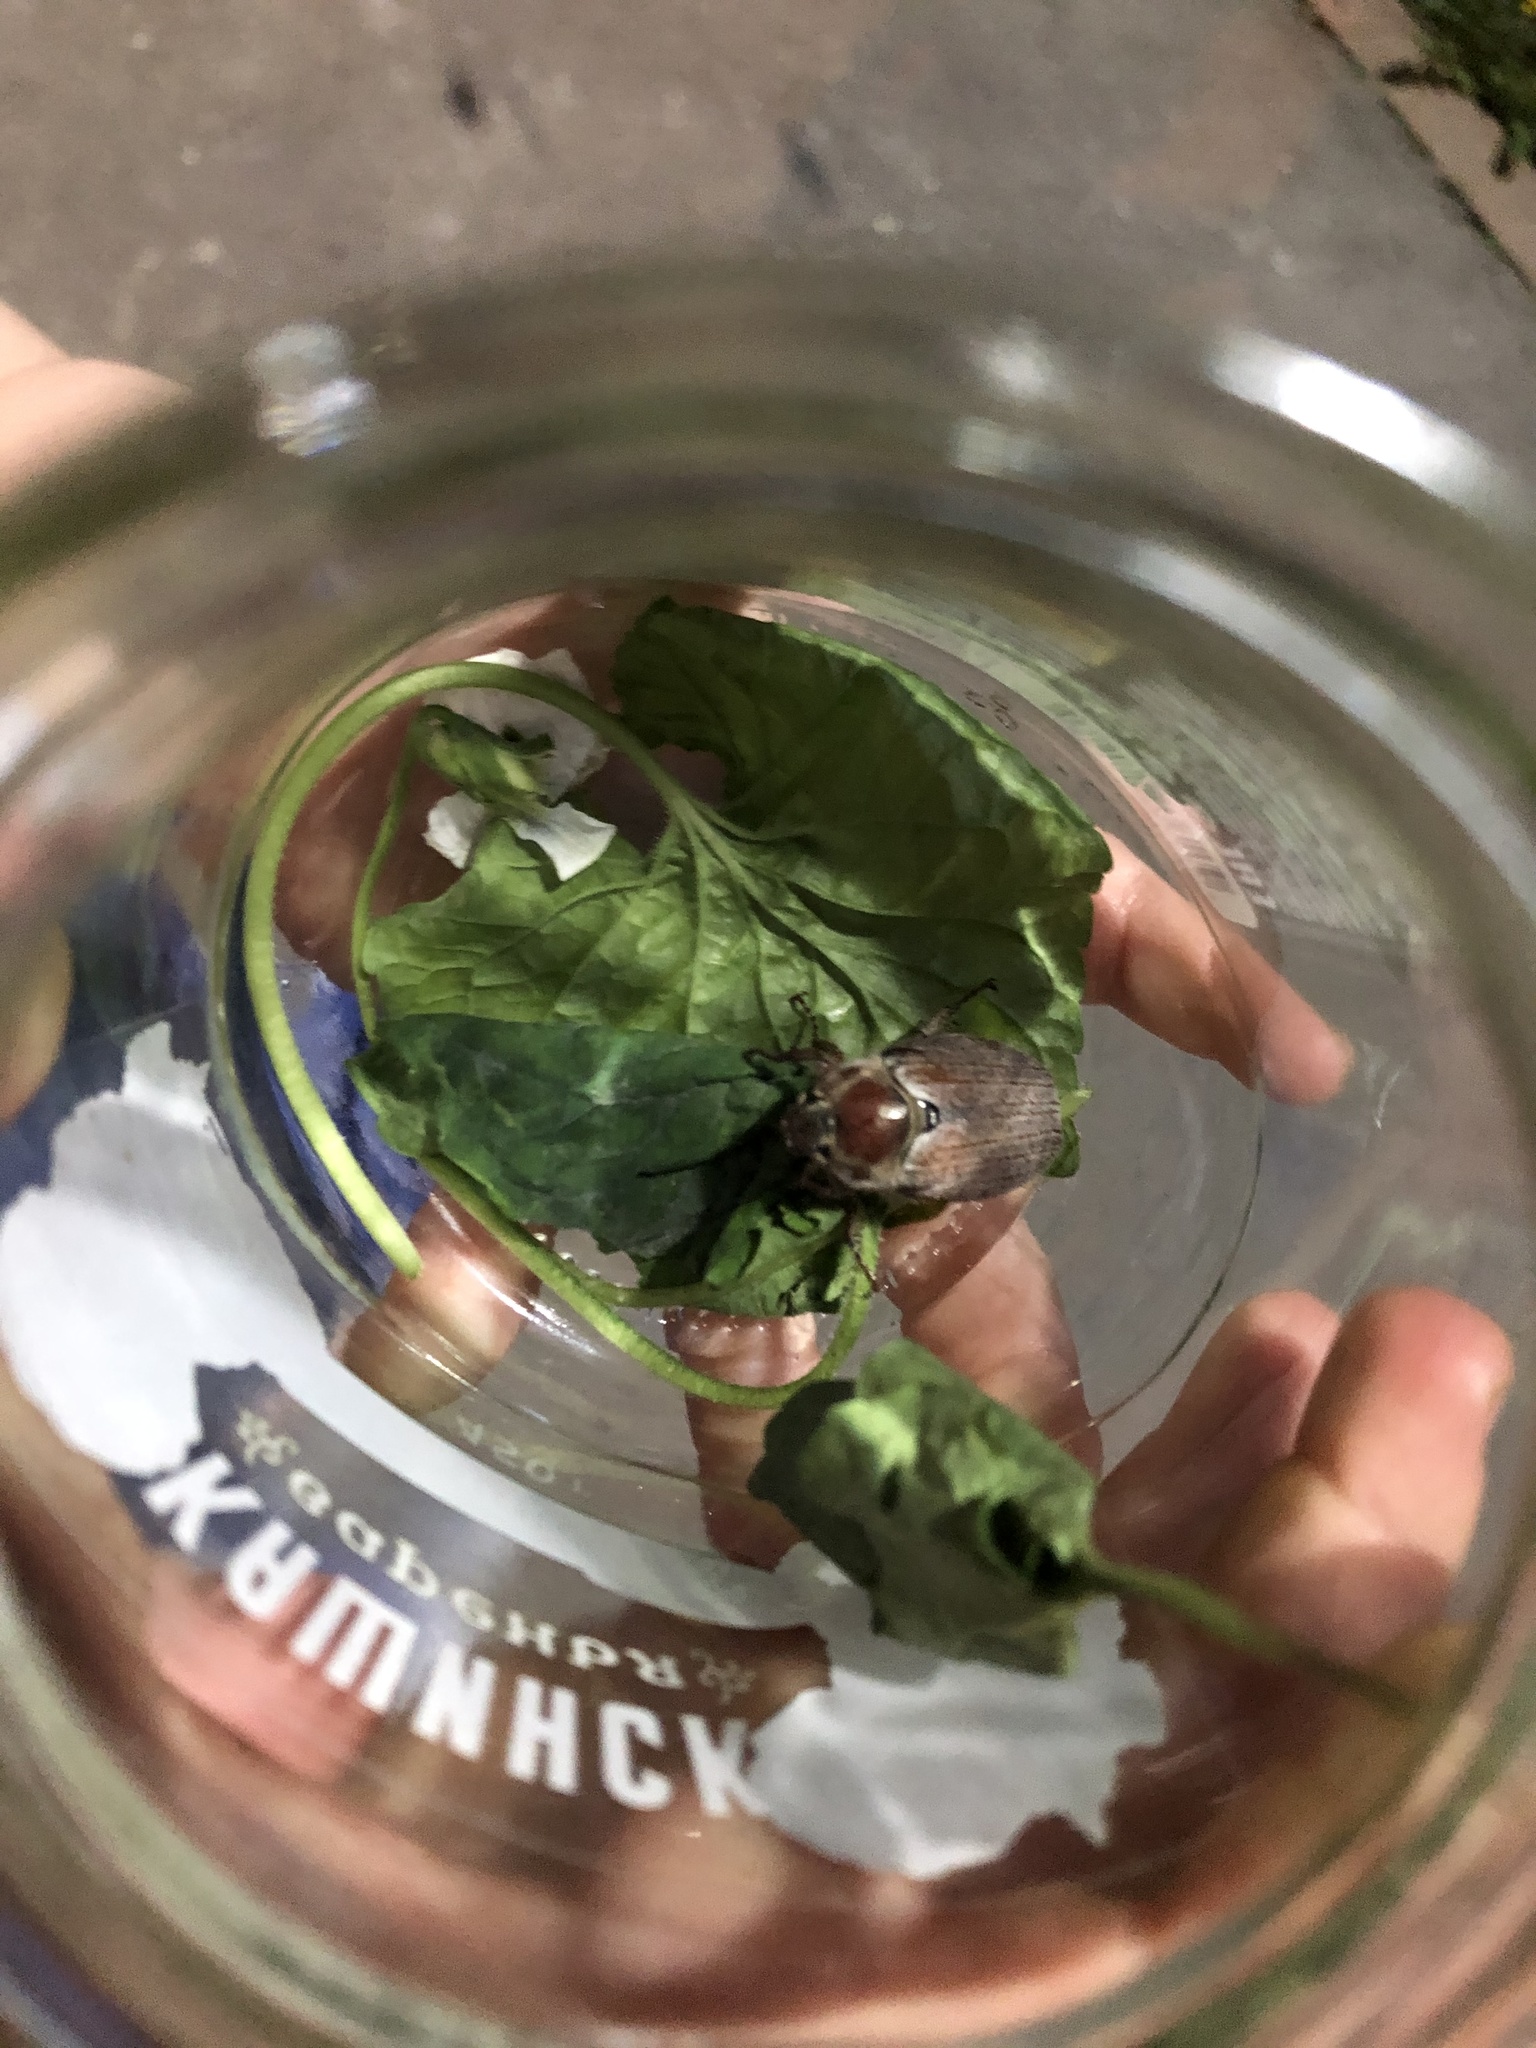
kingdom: Animalia
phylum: Arthropoda
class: Insecta
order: Coleoptera
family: Scarabaeidae
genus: Melolontha
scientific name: Melolontha hippocastani
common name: Chestnut cockchafer
